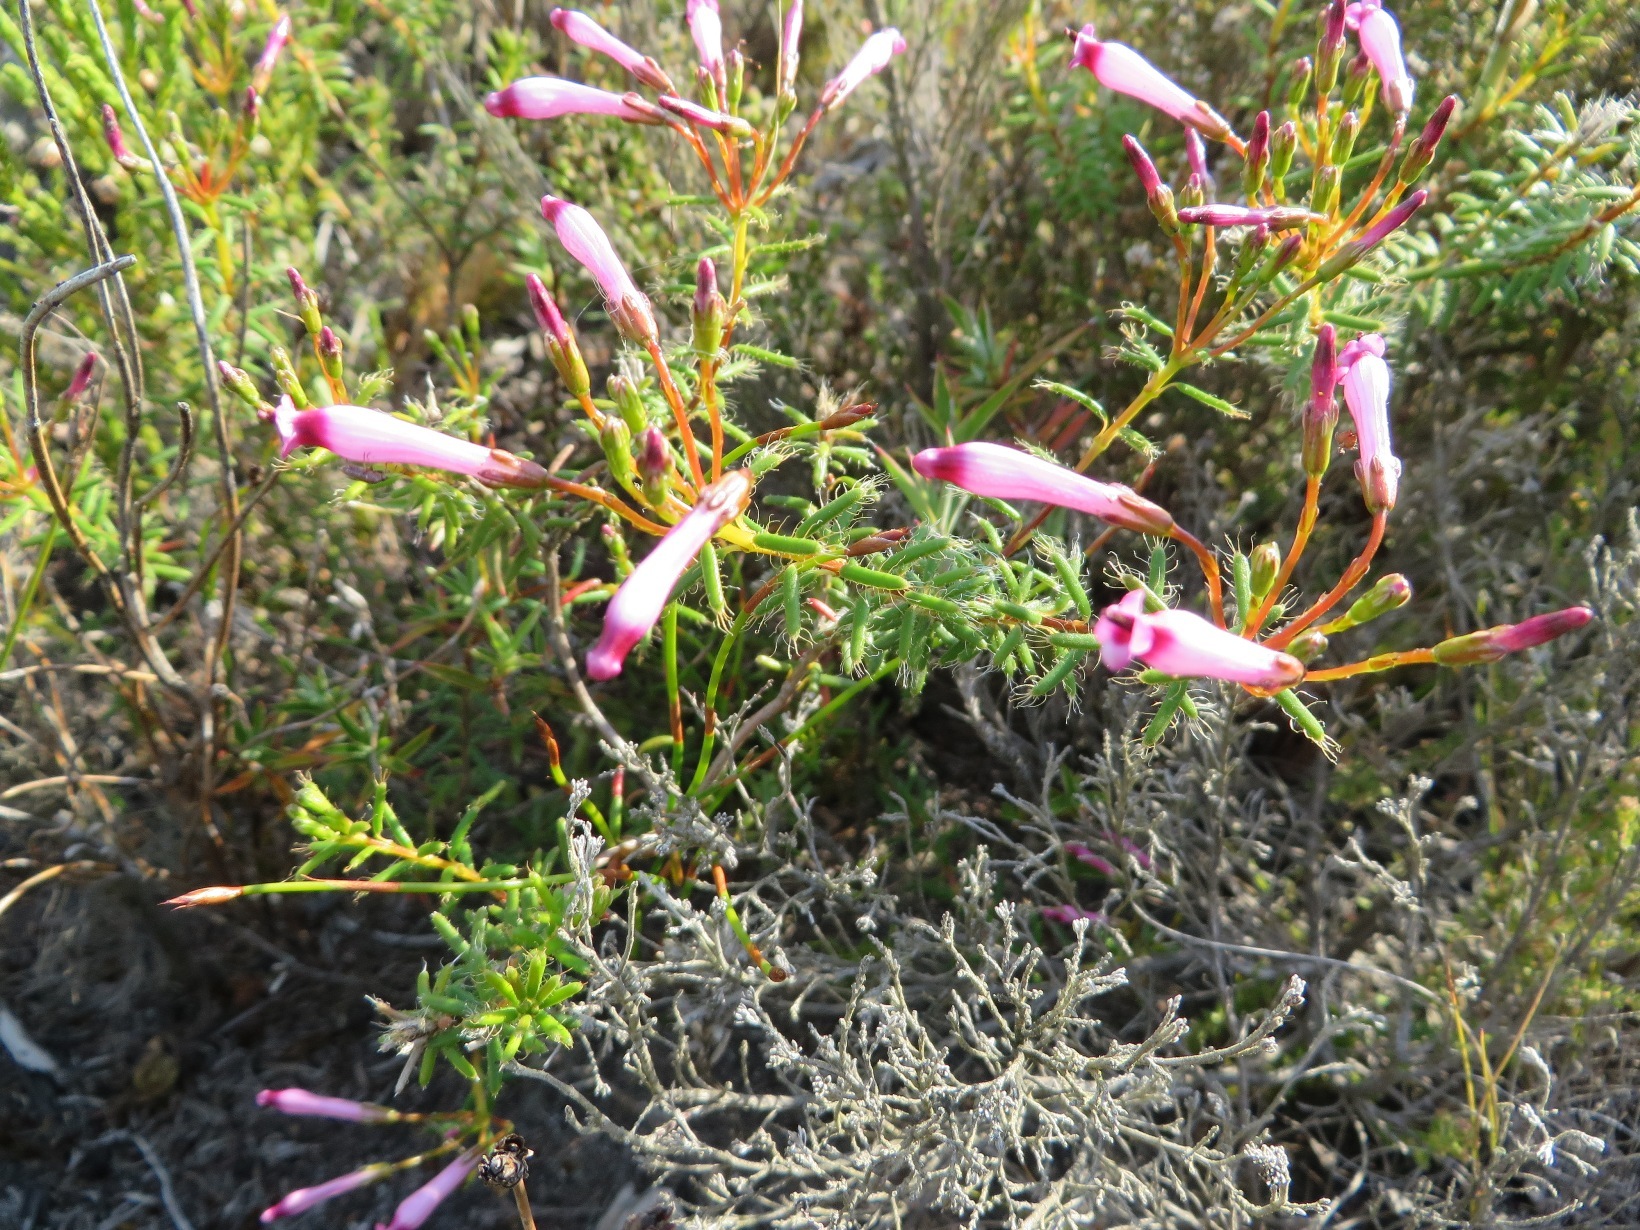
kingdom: Plantae
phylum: Tracheophyta
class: Magnoliopsida
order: Ericales
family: Ericaceae
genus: Erica
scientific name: Erica embothriifolia
